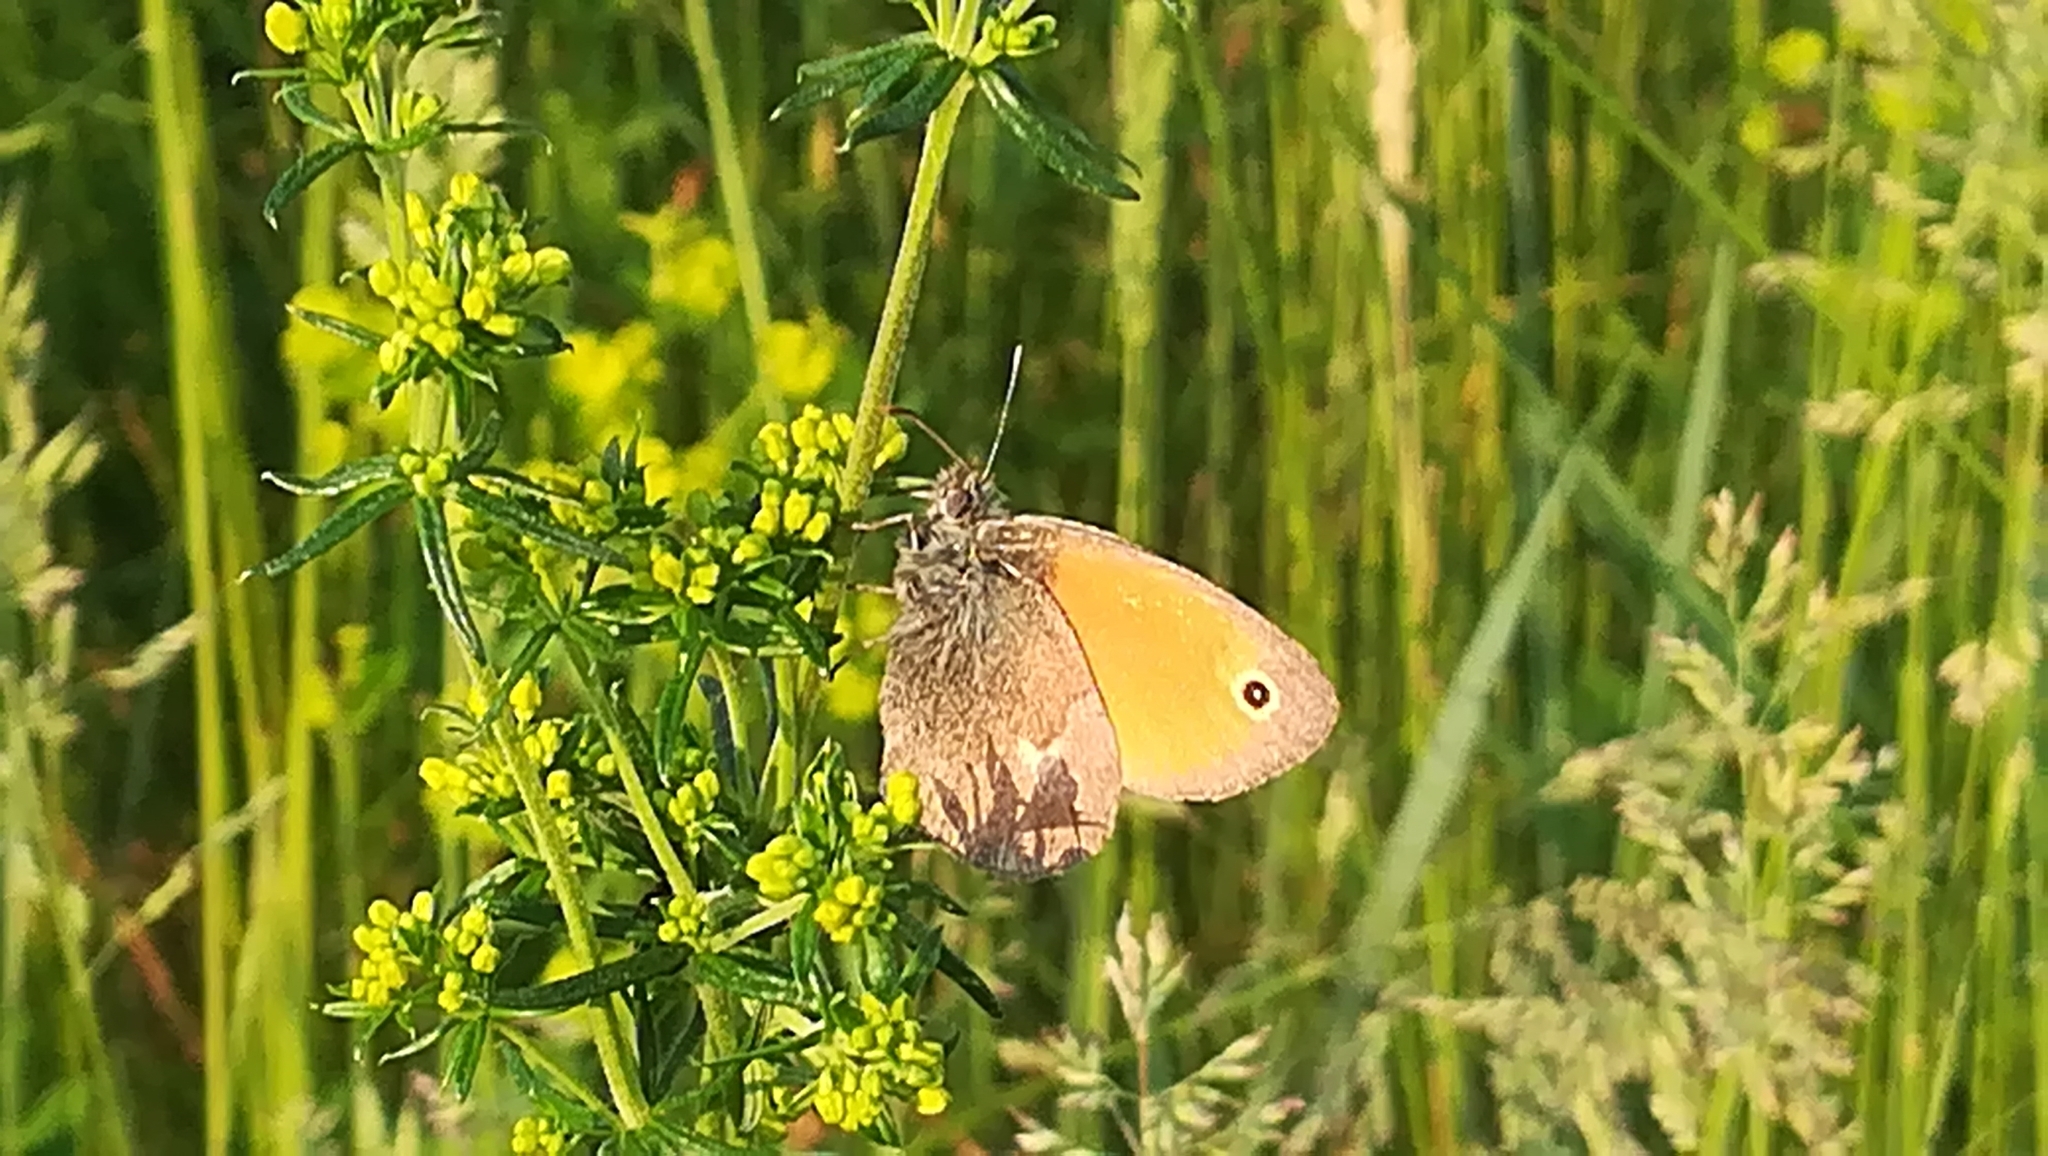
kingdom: Animalia
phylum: Arthropoda
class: Insecta
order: Lepidoptera
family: Nymphalidae
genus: Coenonympha
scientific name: Coenonympha pamphilus
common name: Small heath
